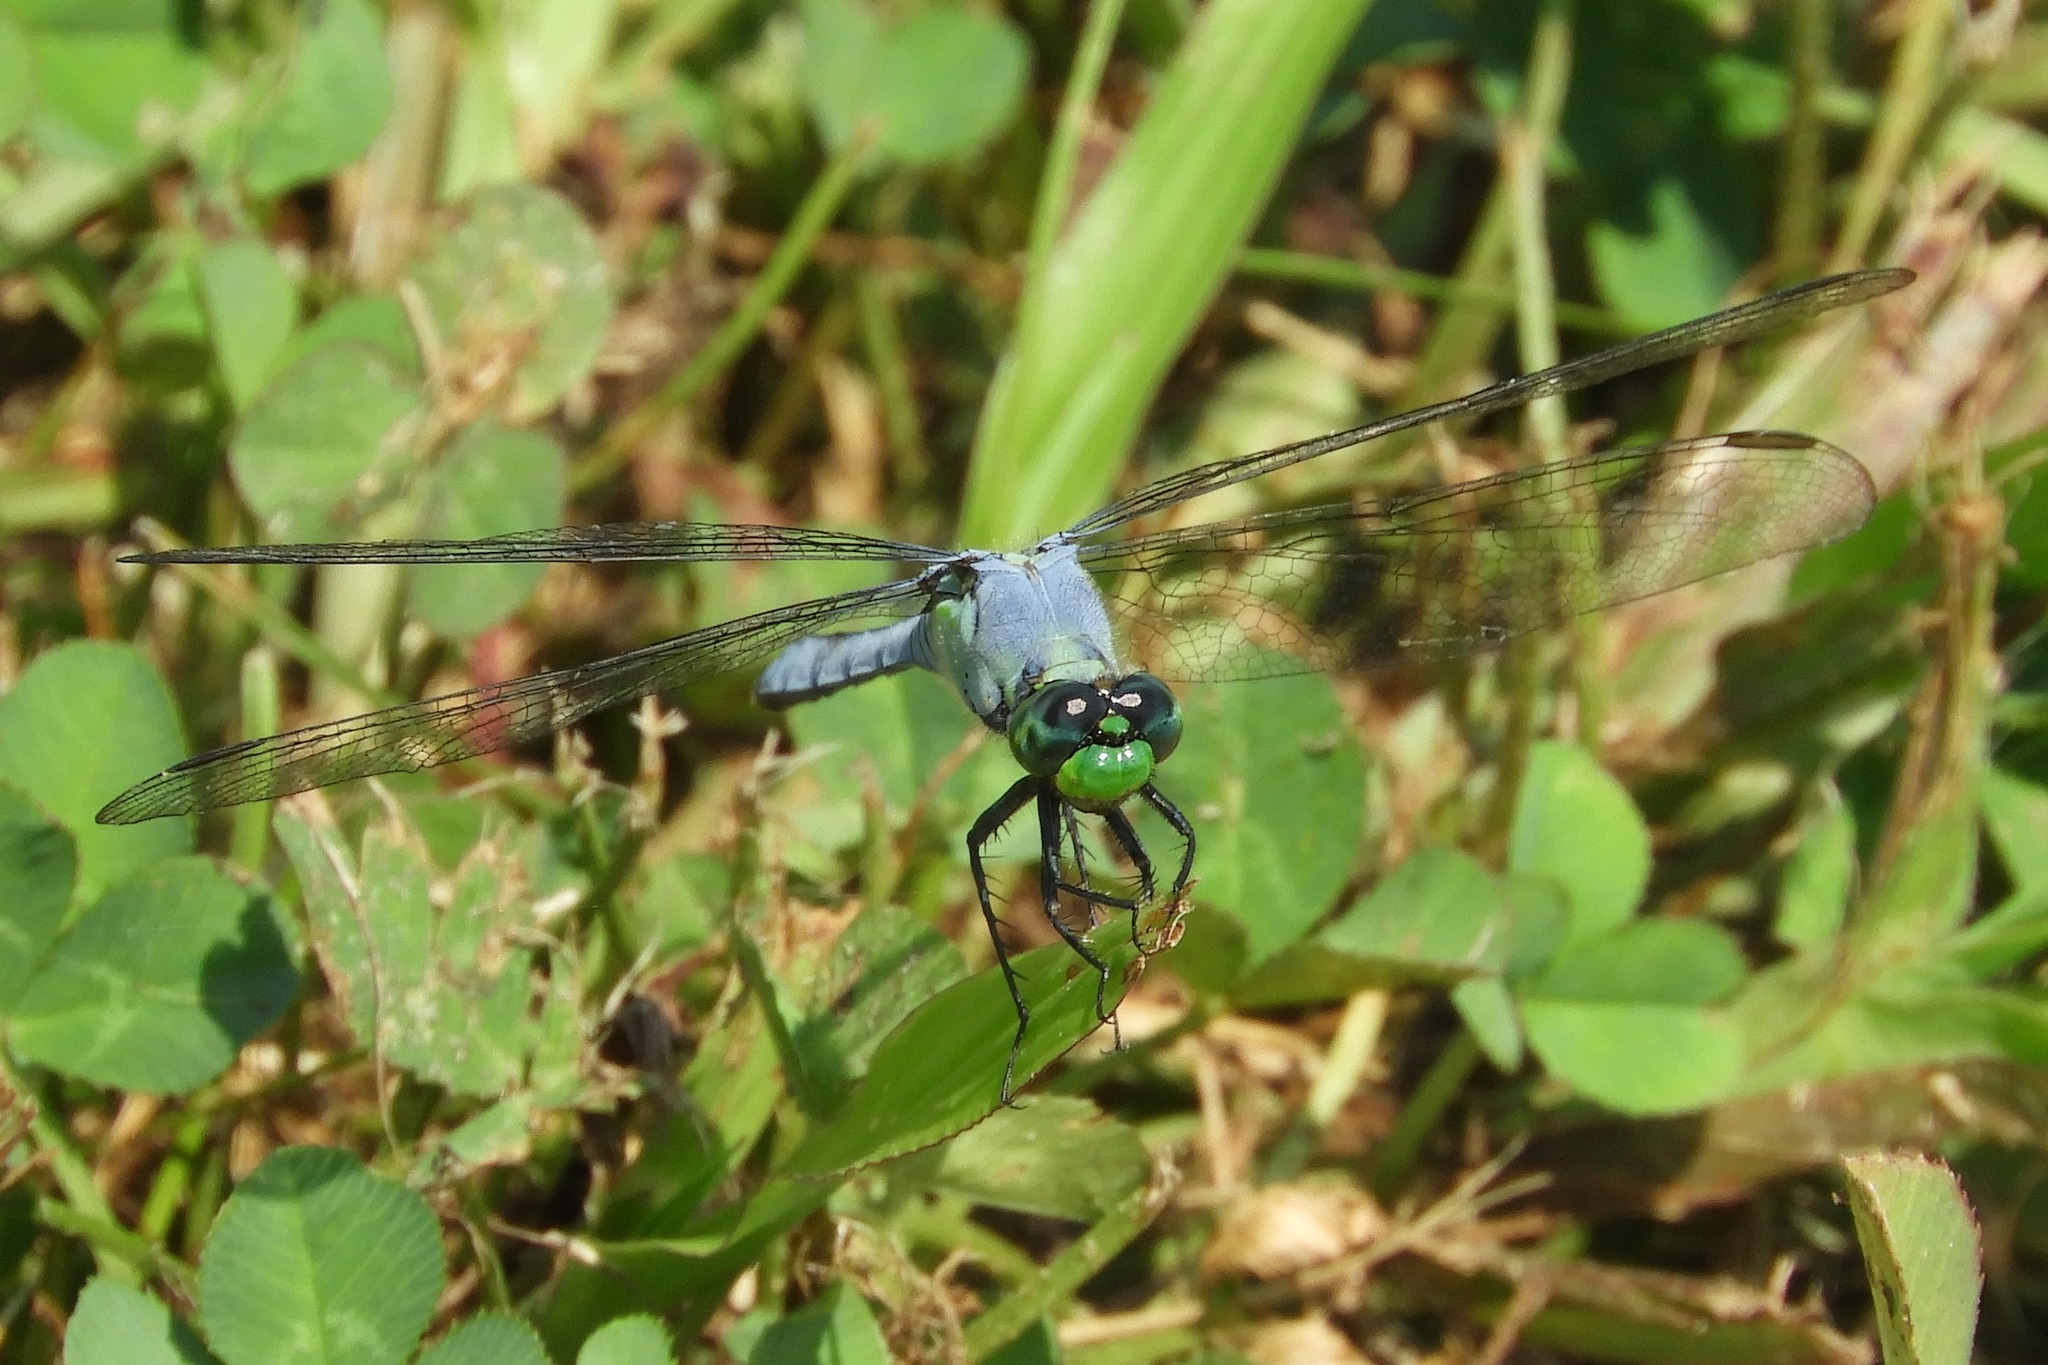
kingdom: Animalia
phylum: Arthropoda
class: Insecta
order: Odonata
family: Libellulidae
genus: Erythemis
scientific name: Erythemis simplicicollis
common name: Eastern pondhawk
